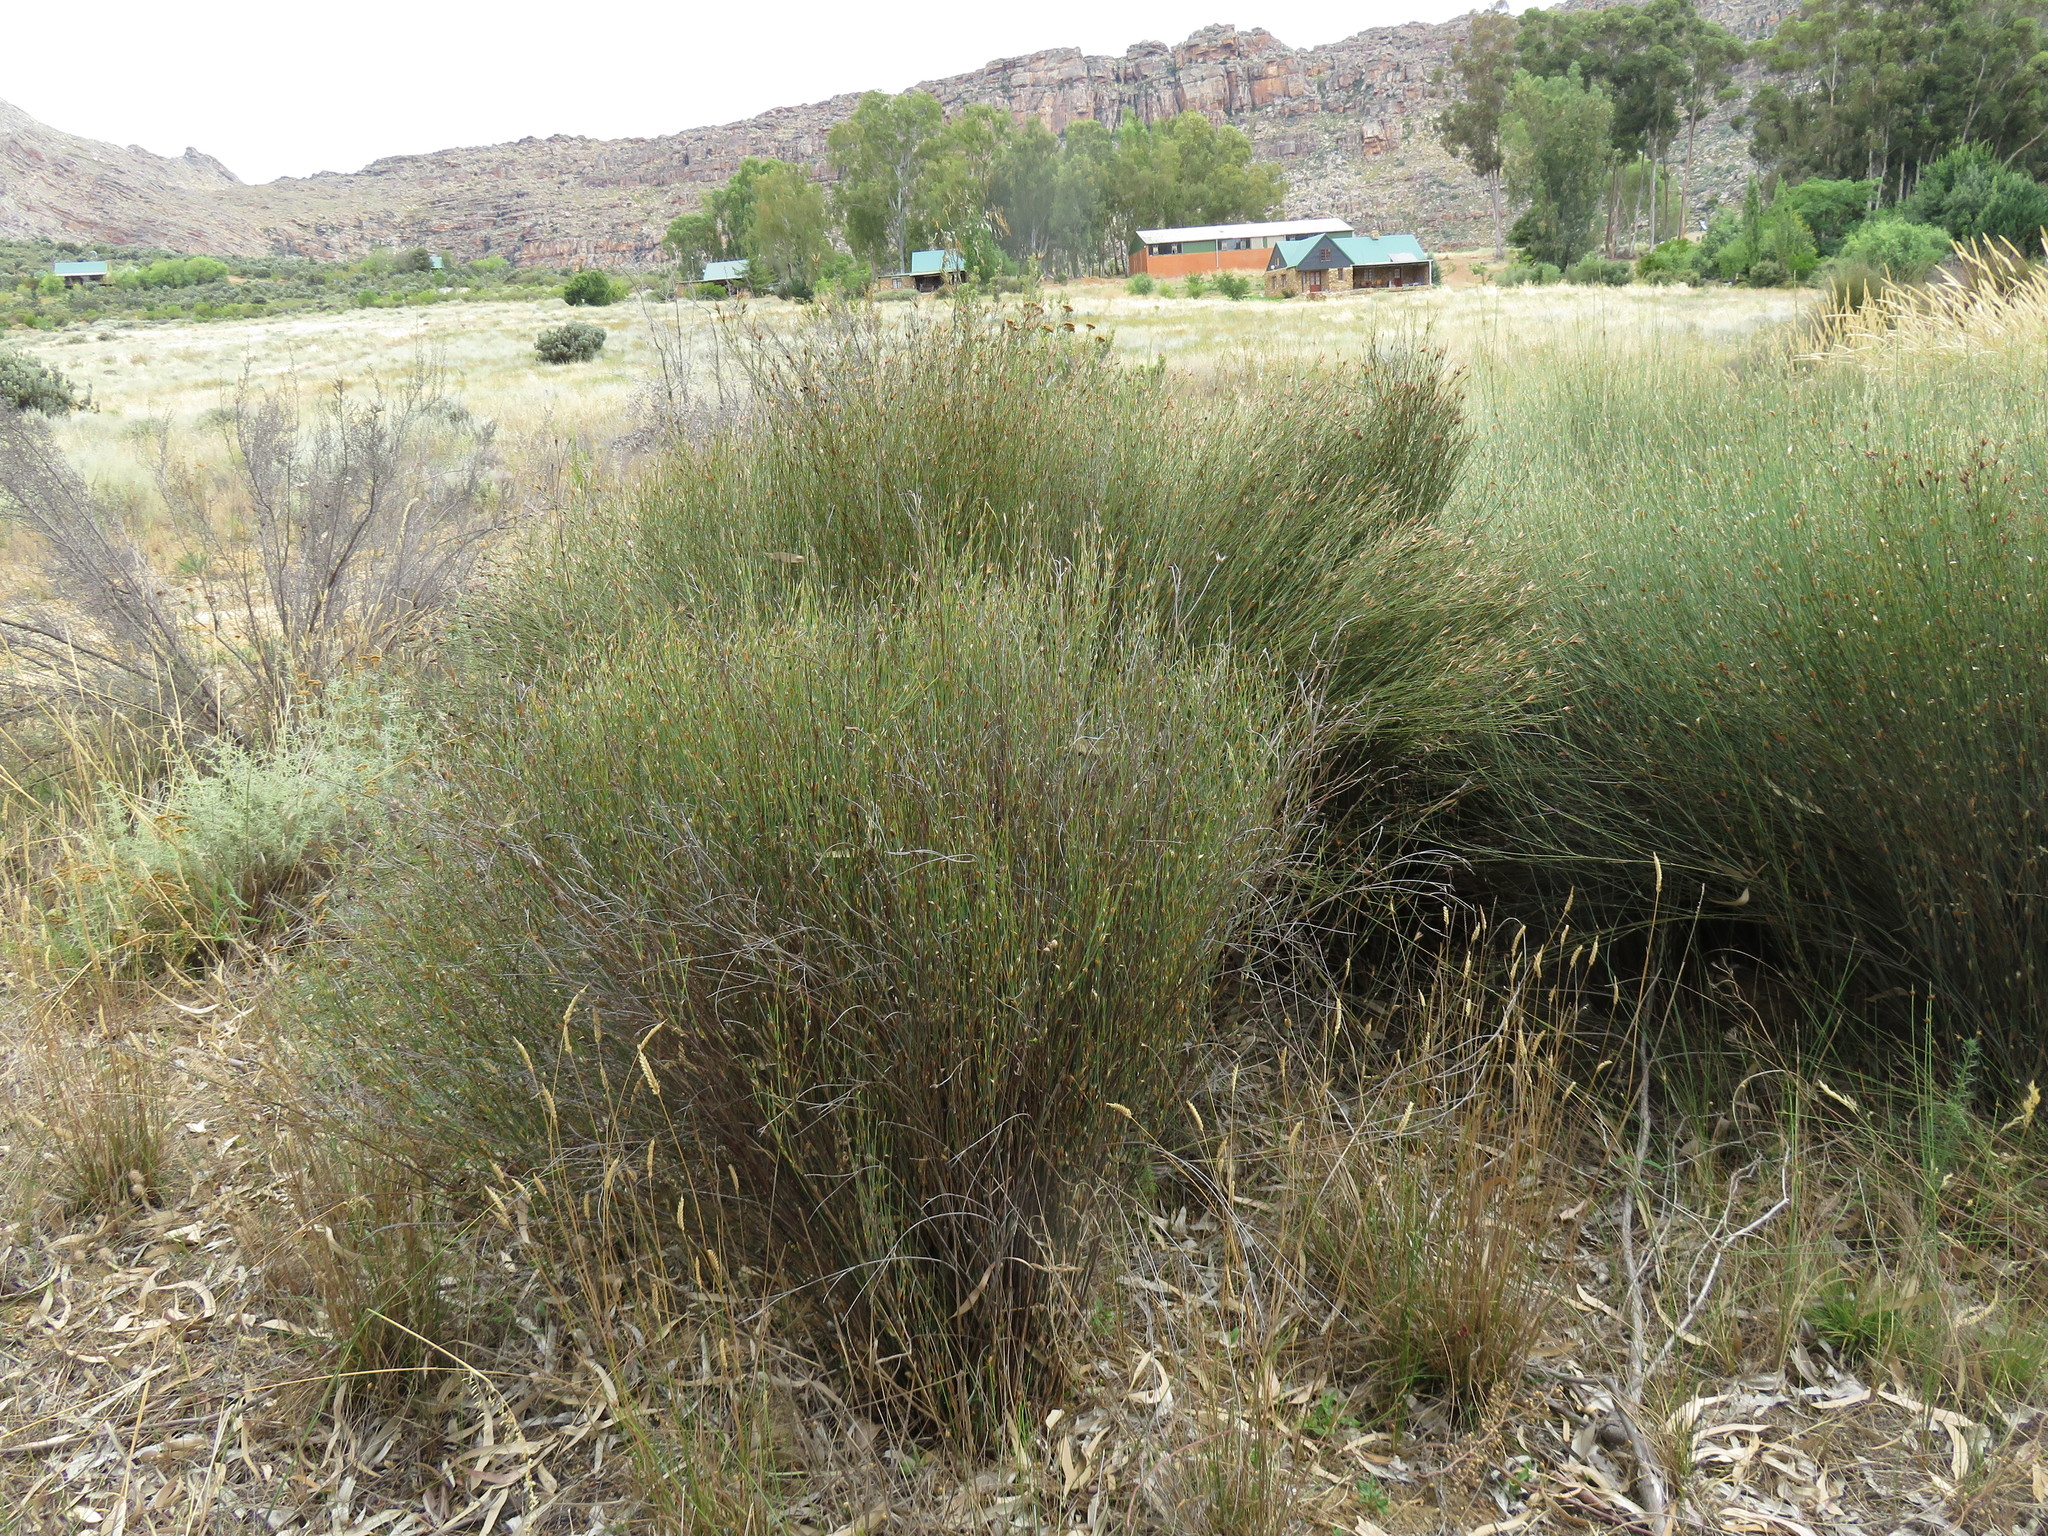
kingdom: Plantae
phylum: Tracheophyta
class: Liliopsida
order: Poales
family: Restionaceae
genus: Willdenowia
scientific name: Willdenowia incurvata
